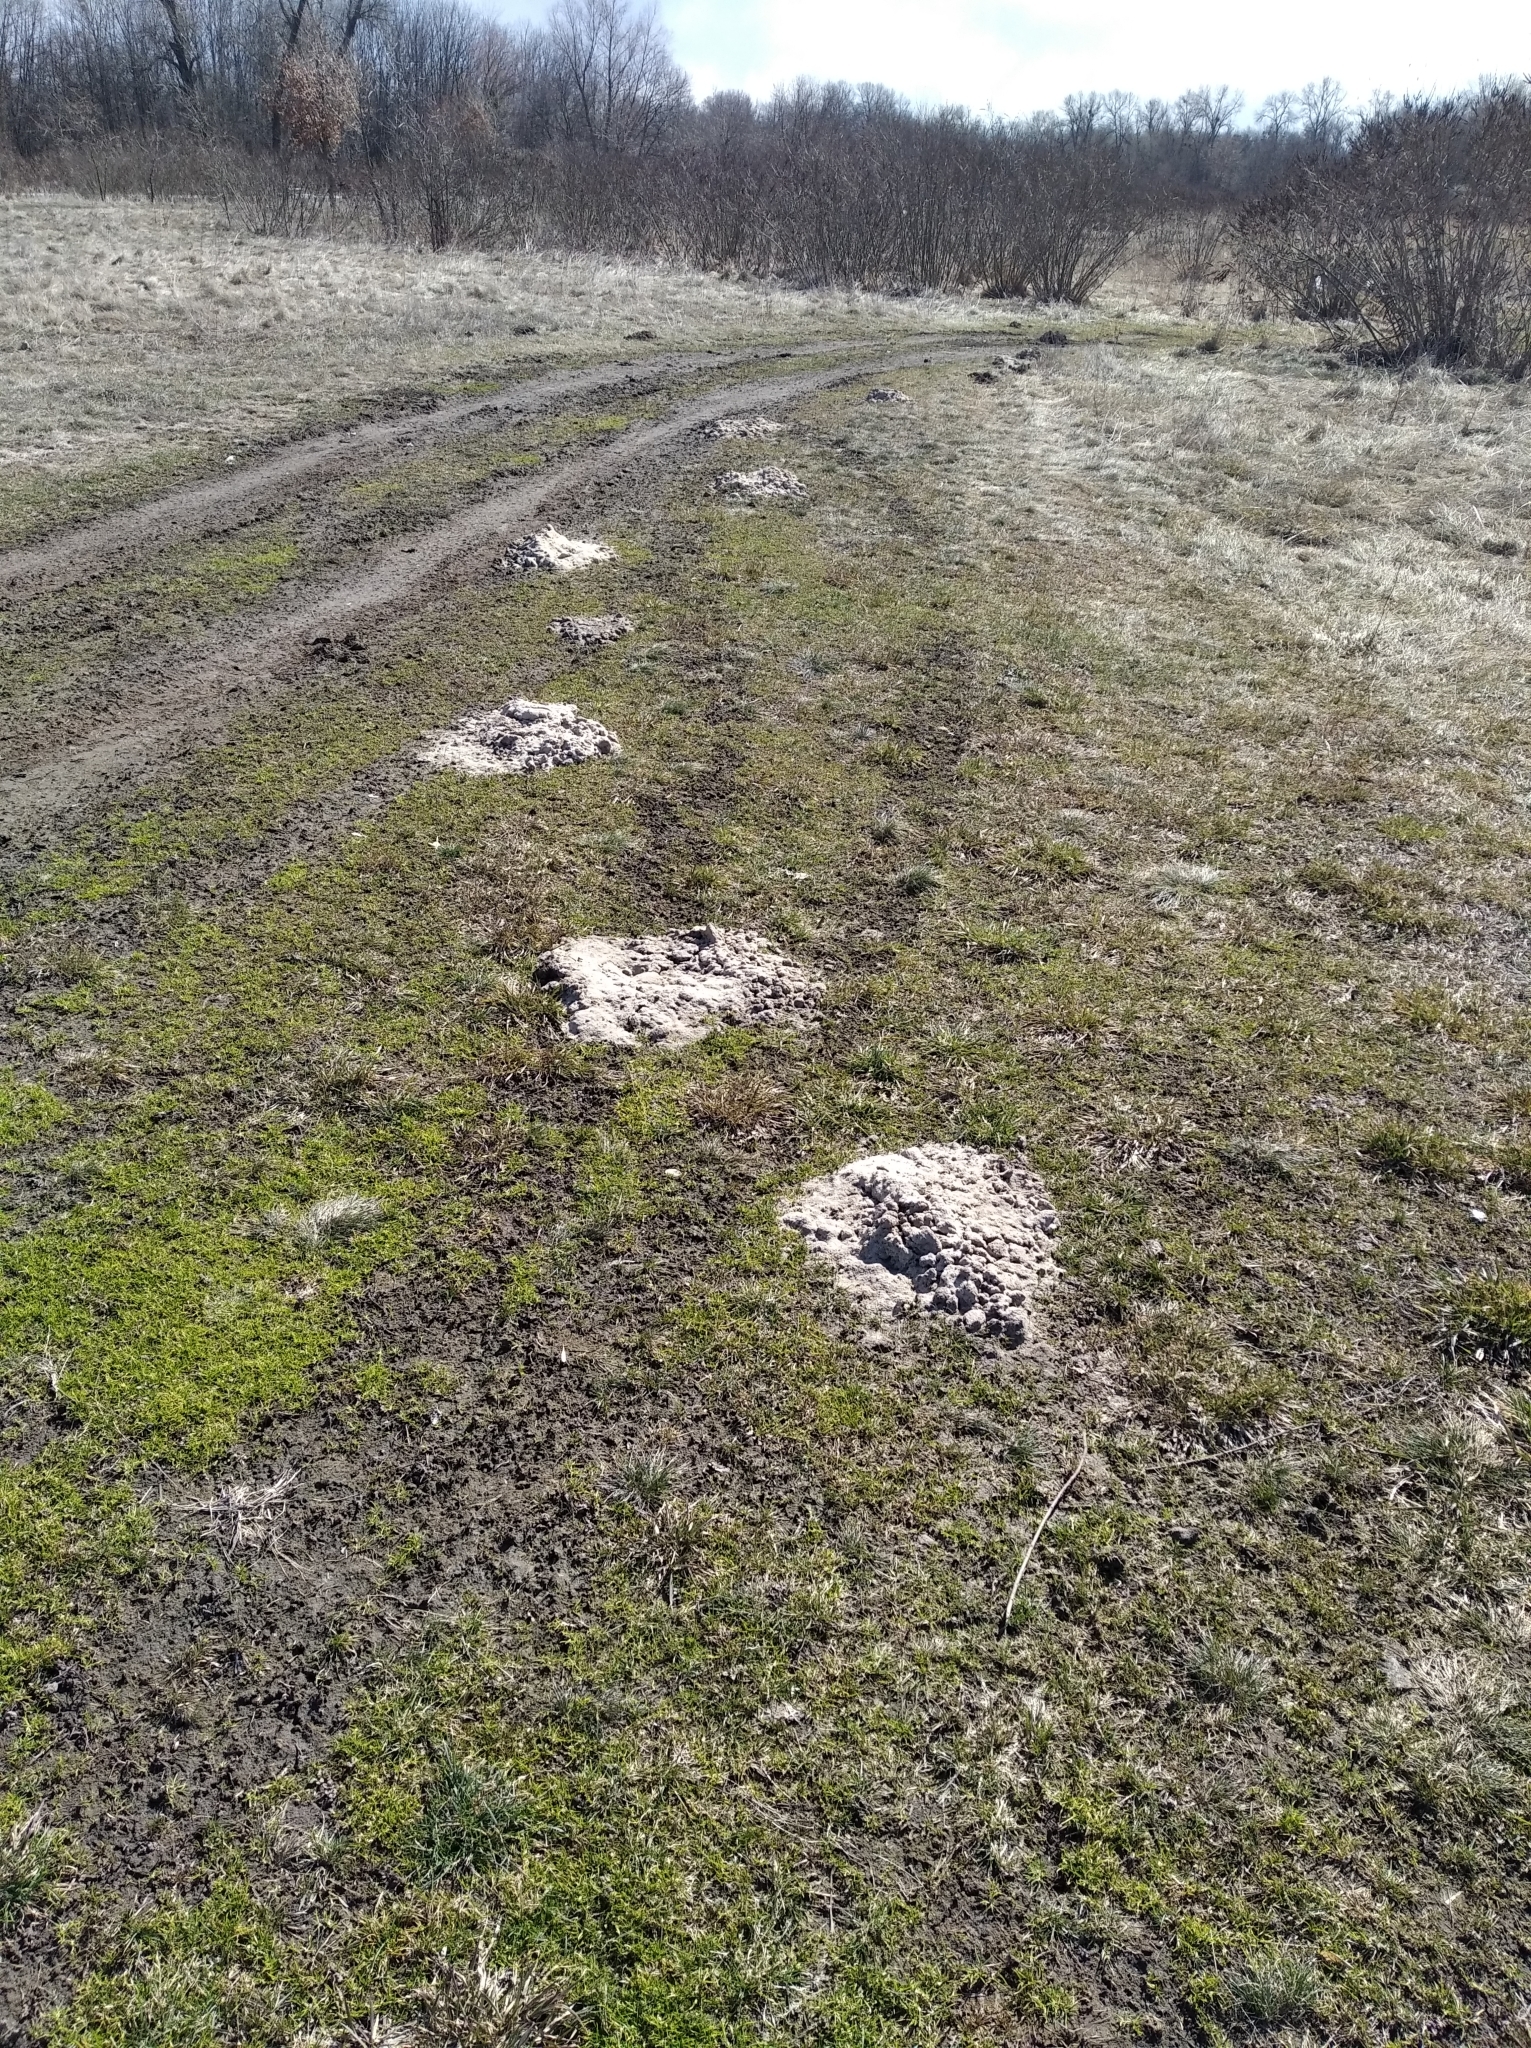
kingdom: Animalia
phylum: Chordata
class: Mammalia
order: Soricomorpha
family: Talpidae
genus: Talpa
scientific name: Talpa europaea
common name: European mole
